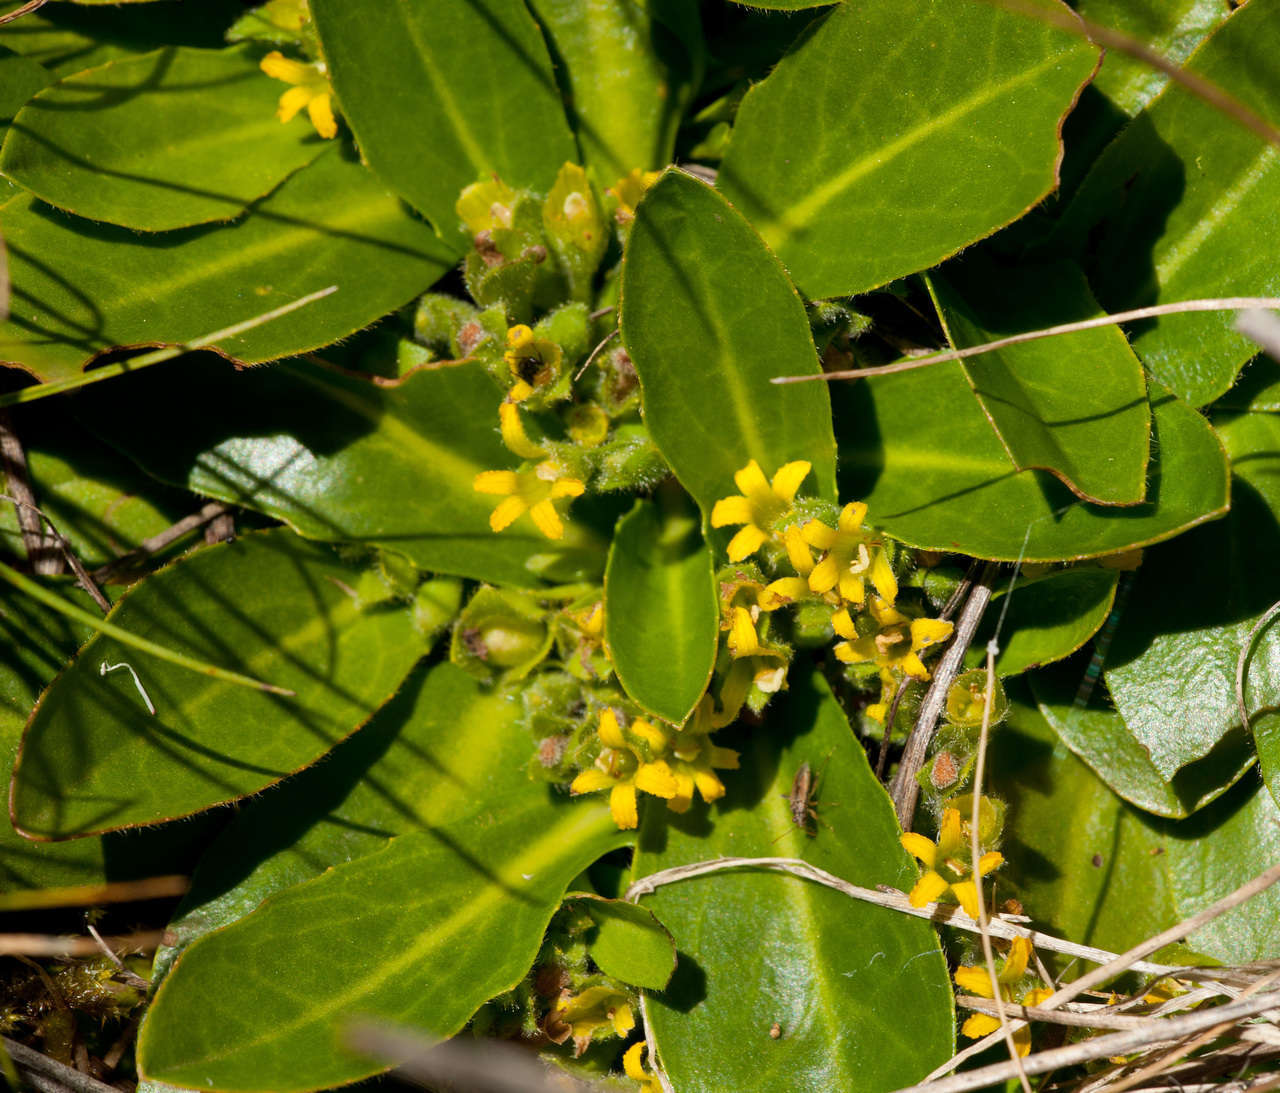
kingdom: Plantae
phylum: Tracheophyta
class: Magnoliopsida
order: Asterales
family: Goodeniaceae
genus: Goodenia
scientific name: Goodenia montana
